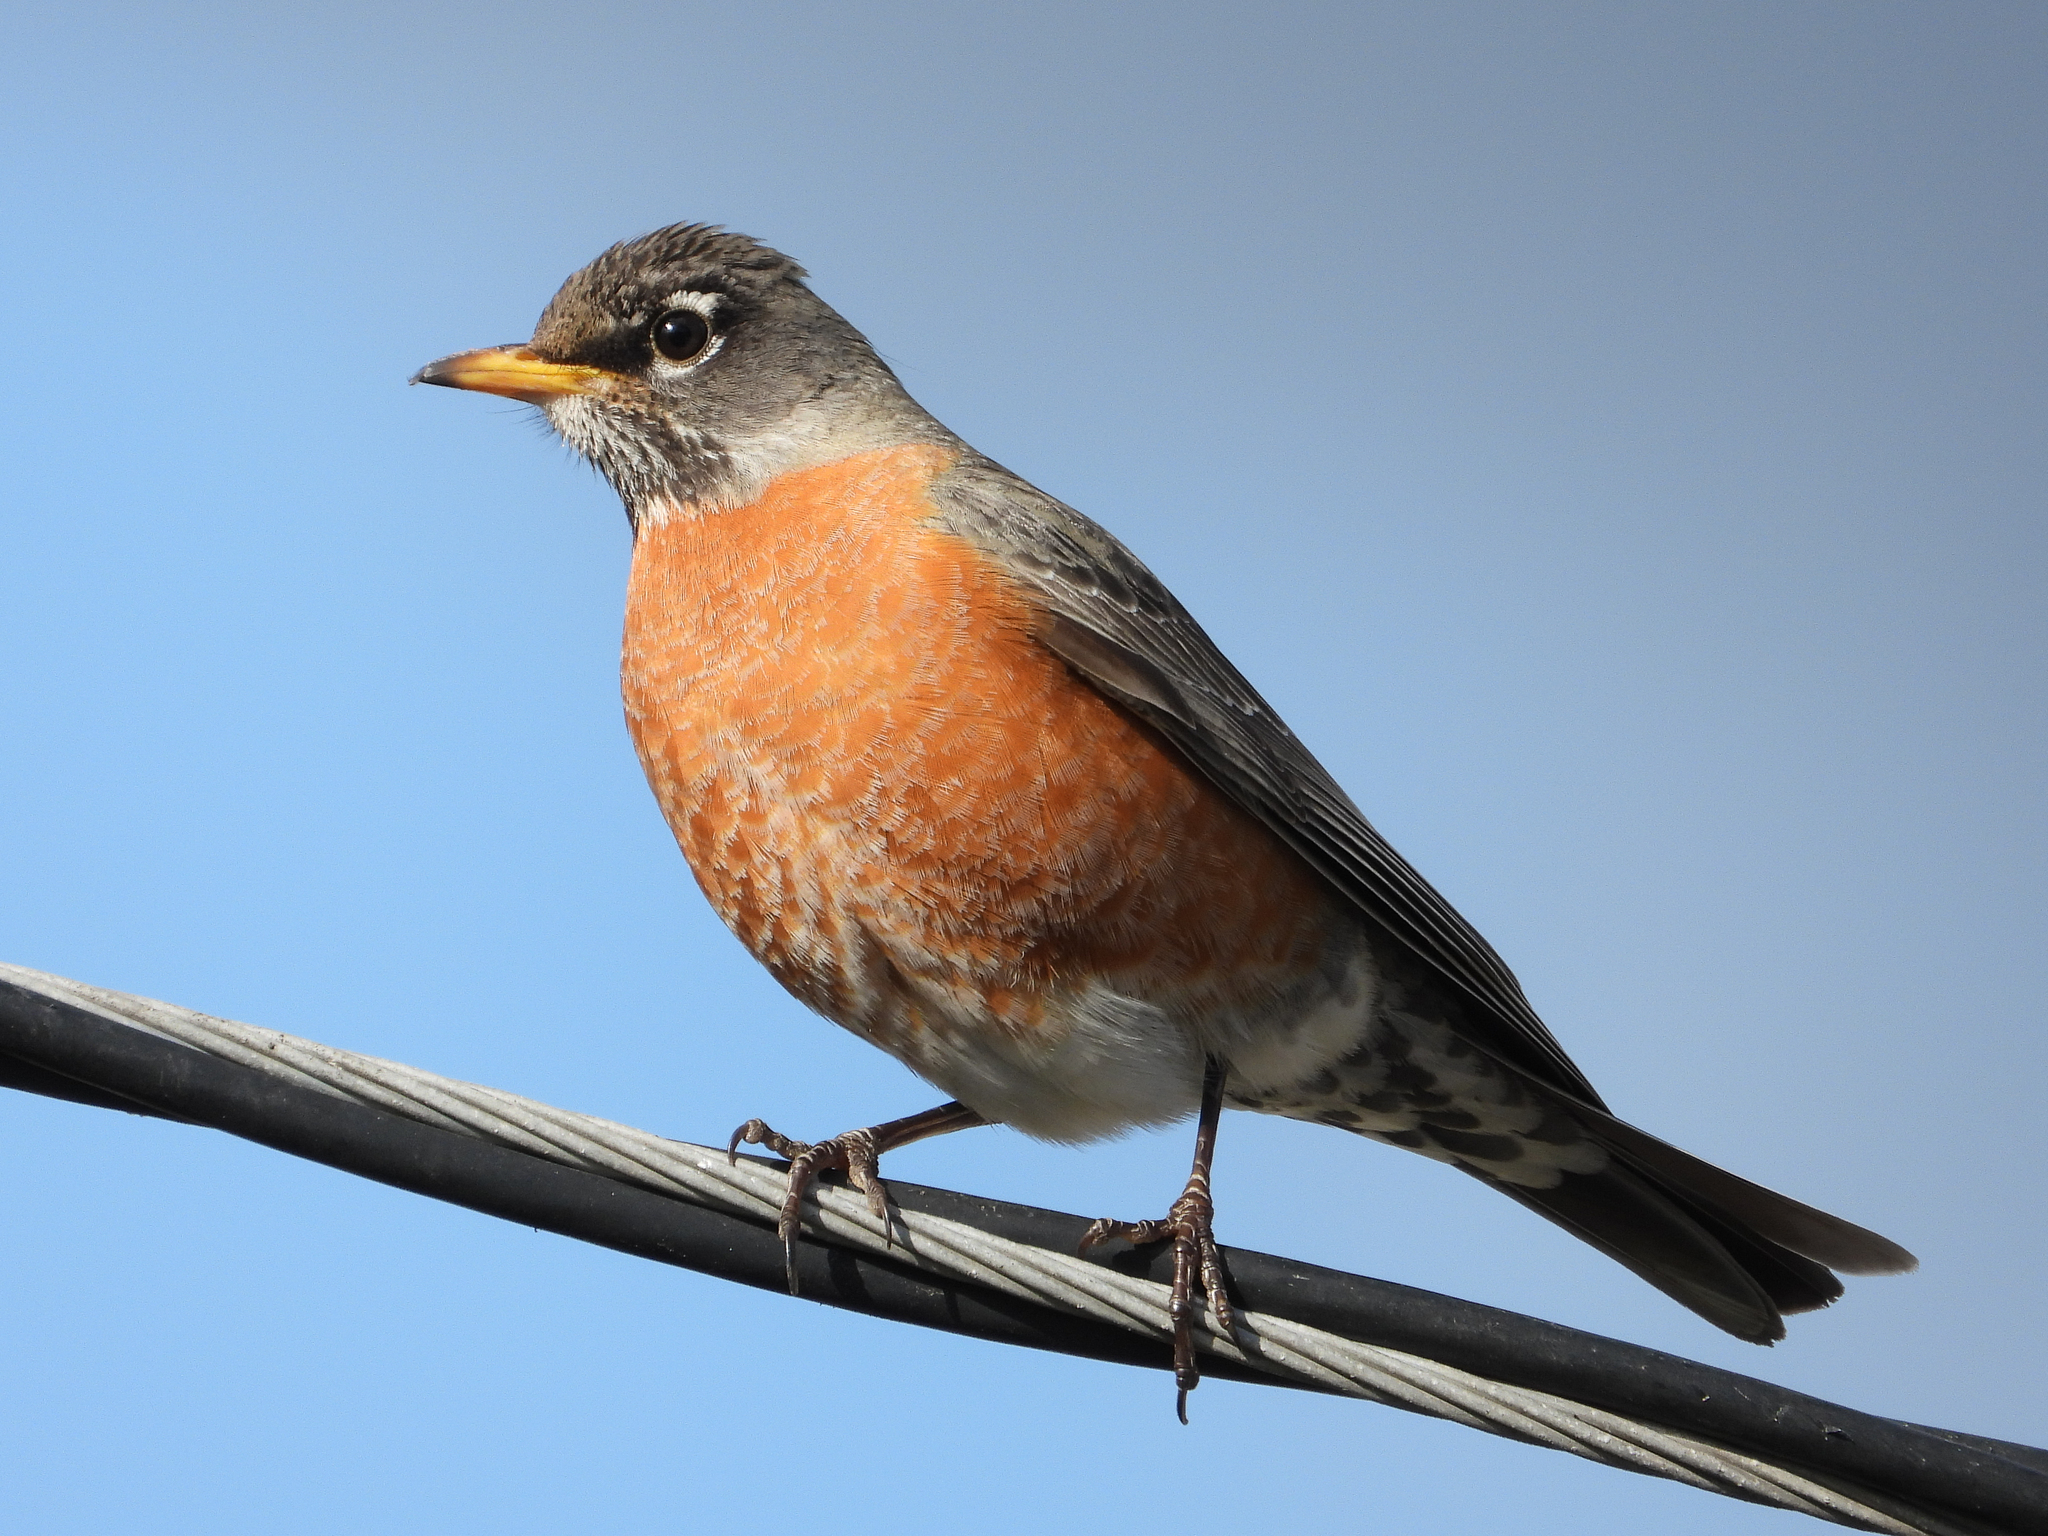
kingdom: Animalia
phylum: Chordata
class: Aves
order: Passeriformes
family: Turdidae
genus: Turdus
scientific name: Turdus migratorius
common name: American robin
